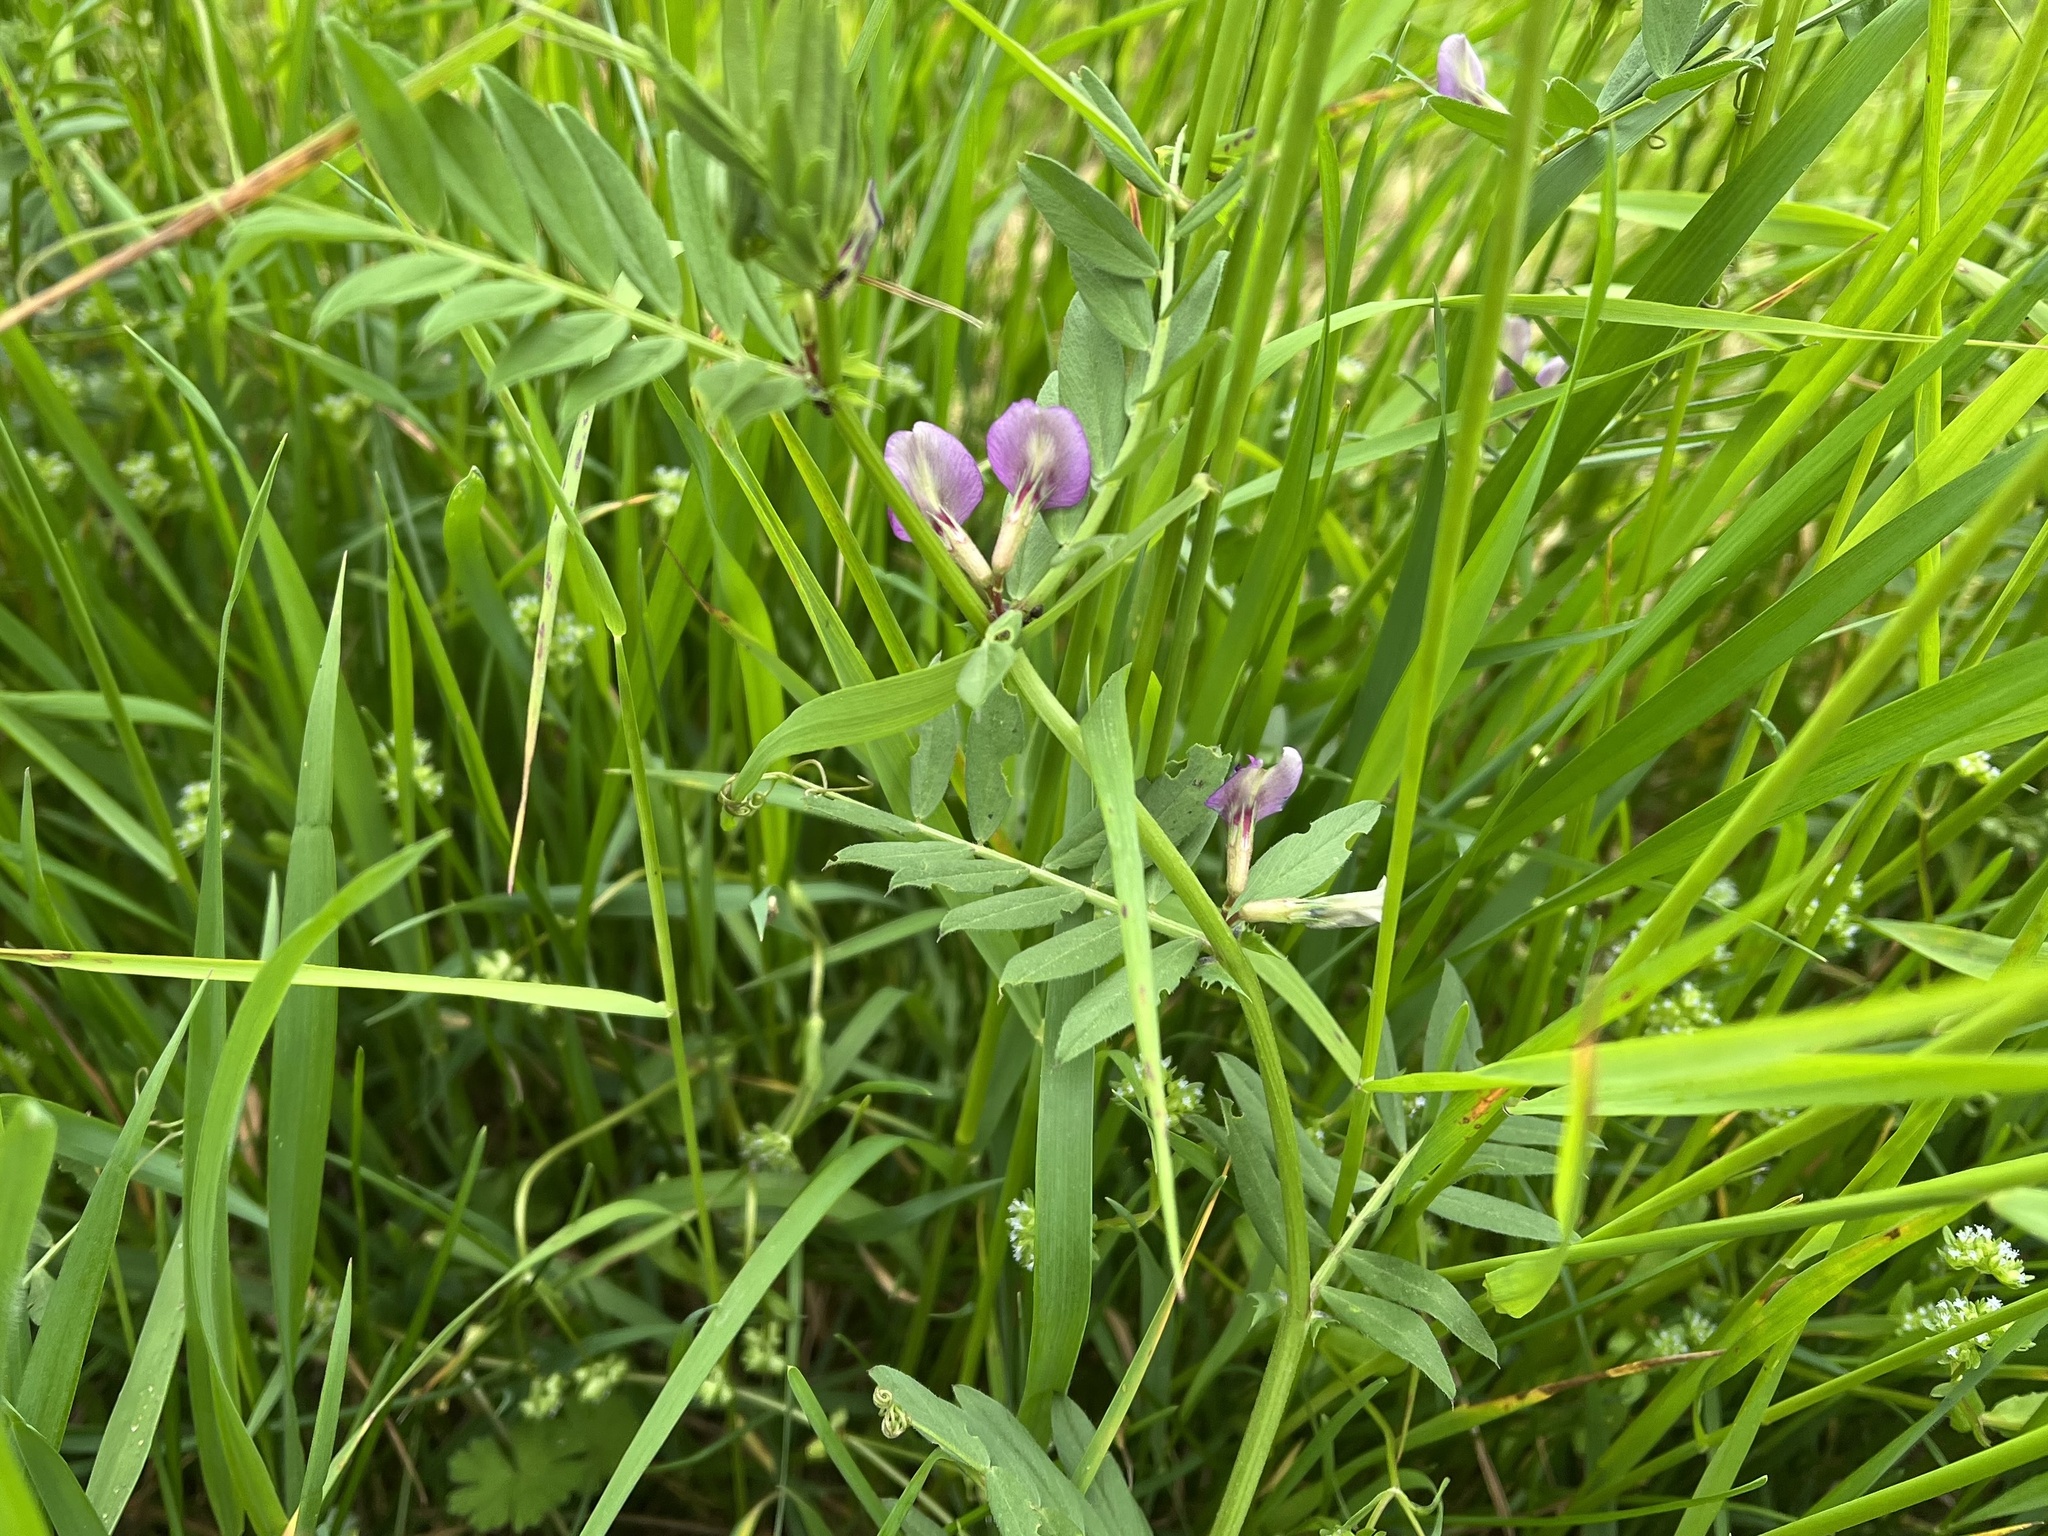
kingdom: Plantae
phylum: Tracheophyta
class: Magnoliopsida
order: Fabales
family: Fabaceae
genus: Vicia
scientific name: Vicia sativa
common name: Garden vetch
